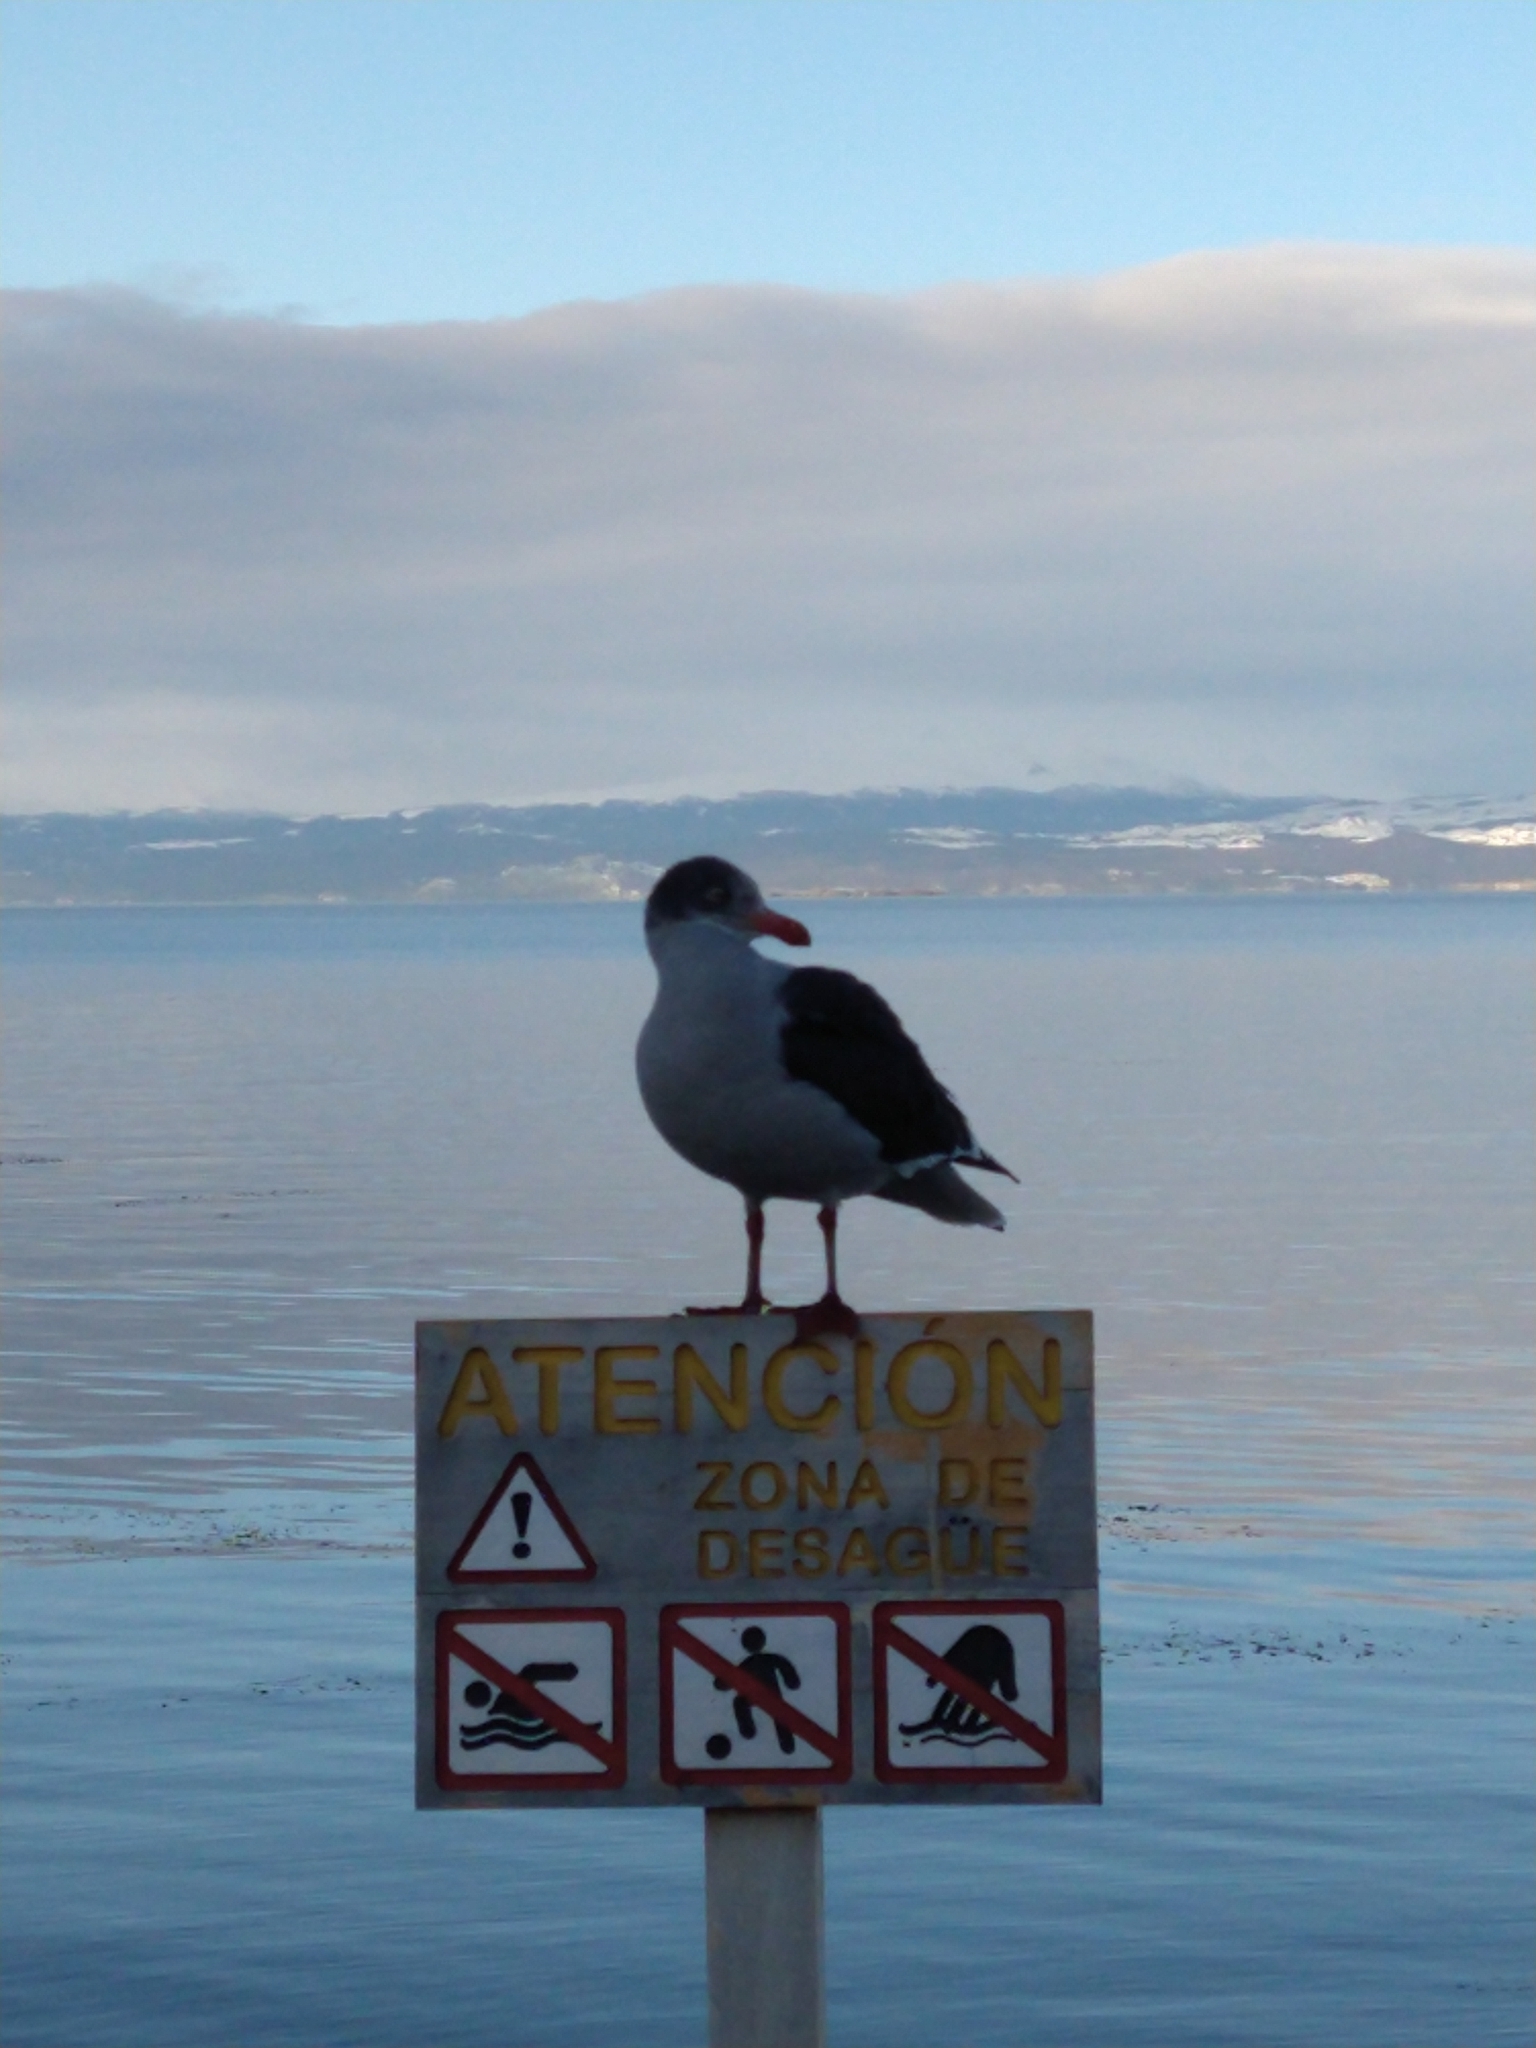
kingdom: Animalia
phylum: Chordata
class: Aves
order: Charadriiformes
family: Laridae
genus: Leucophaeus
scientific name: Leucophaeus scoresbii
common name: Dolphin gull
